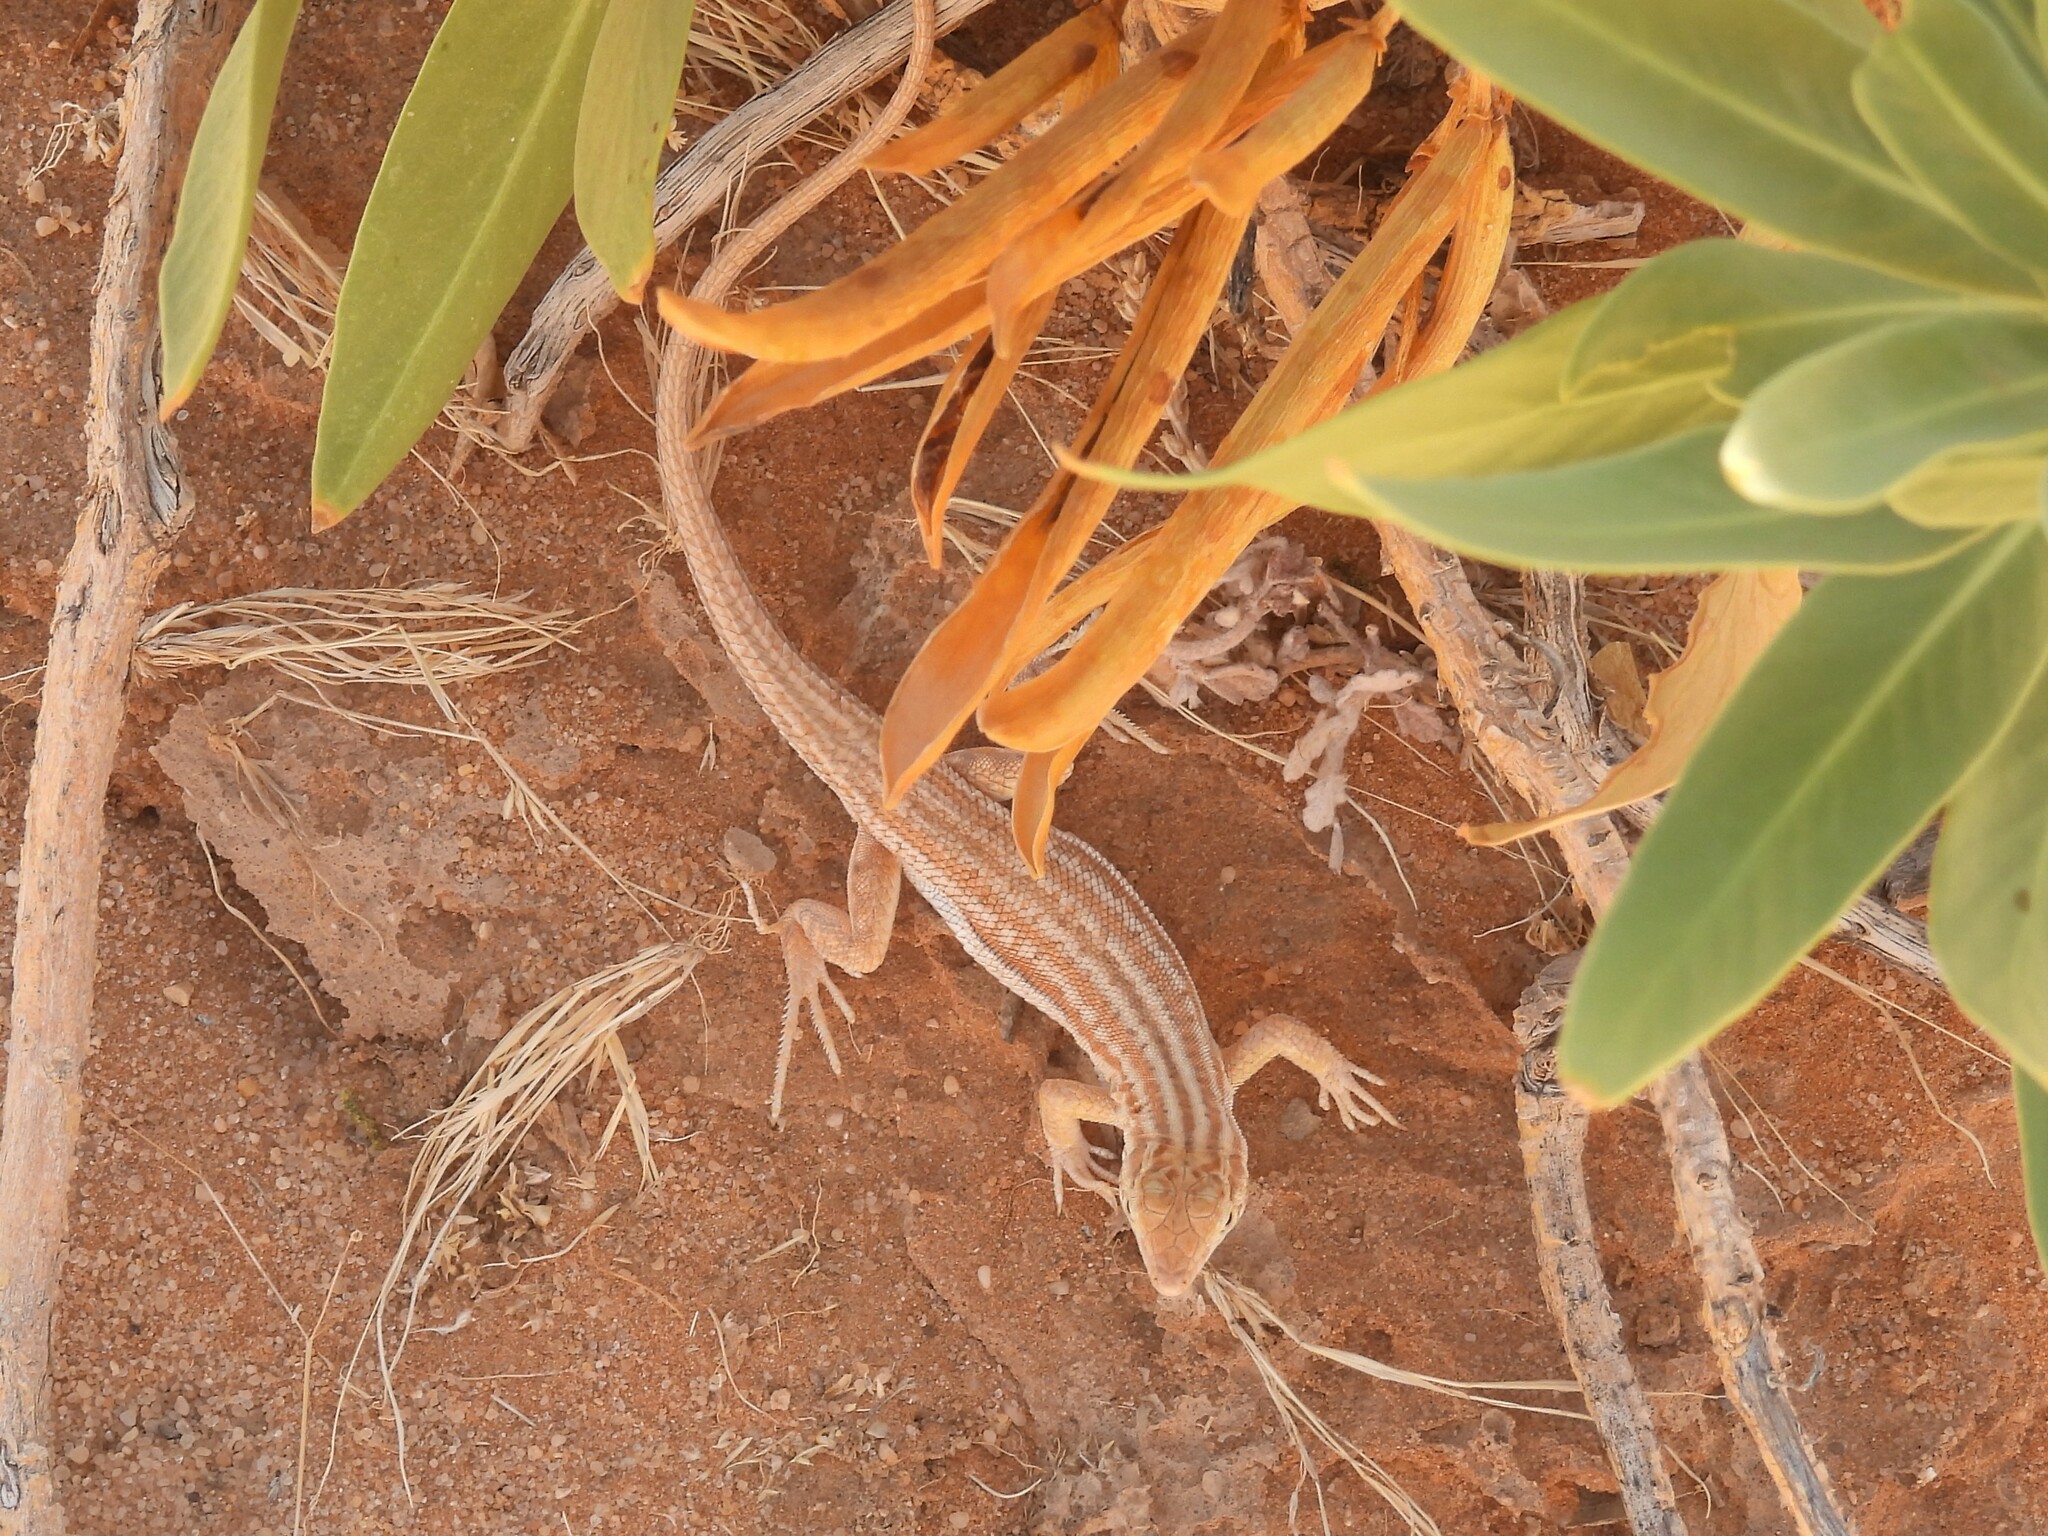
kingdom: Animalia
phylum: Chordata
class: Squamata
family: Lacertidae
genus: Acanthodactylus
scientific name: Acanthodactylus opheodurus
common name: Arnold's fringe-fingered lizard
